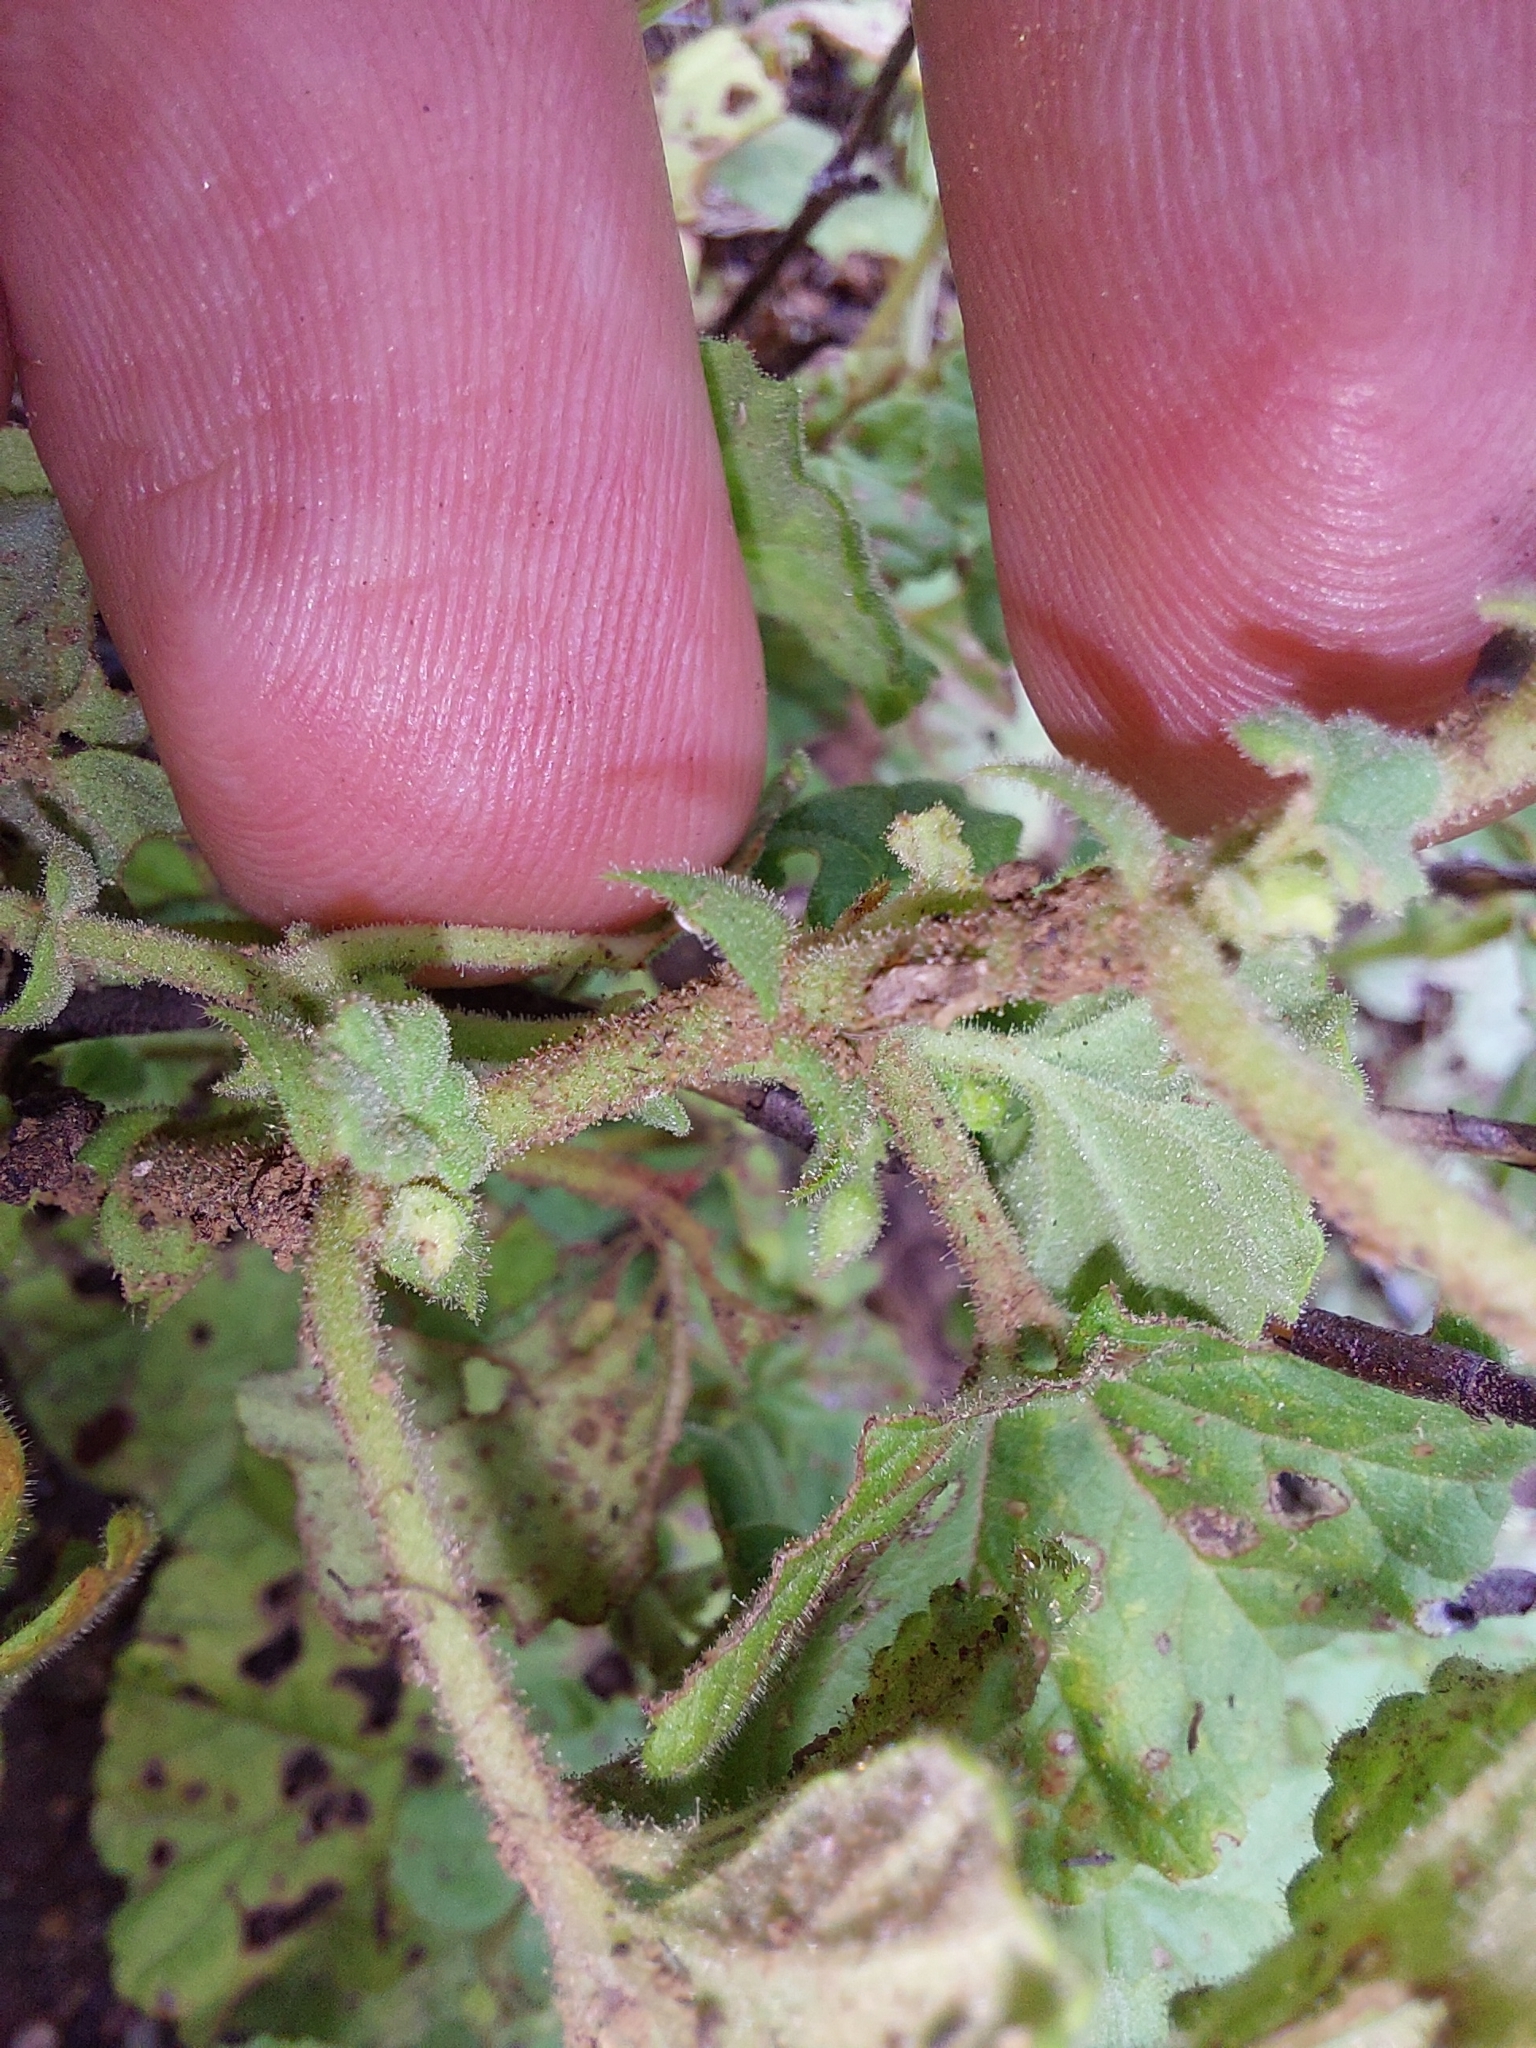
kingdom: Plantae
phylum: Tracheophyta
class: Magnoliopsida
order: Malvales
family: Malvaceae
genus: Hermannia
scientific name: Hermannia malvifolia
